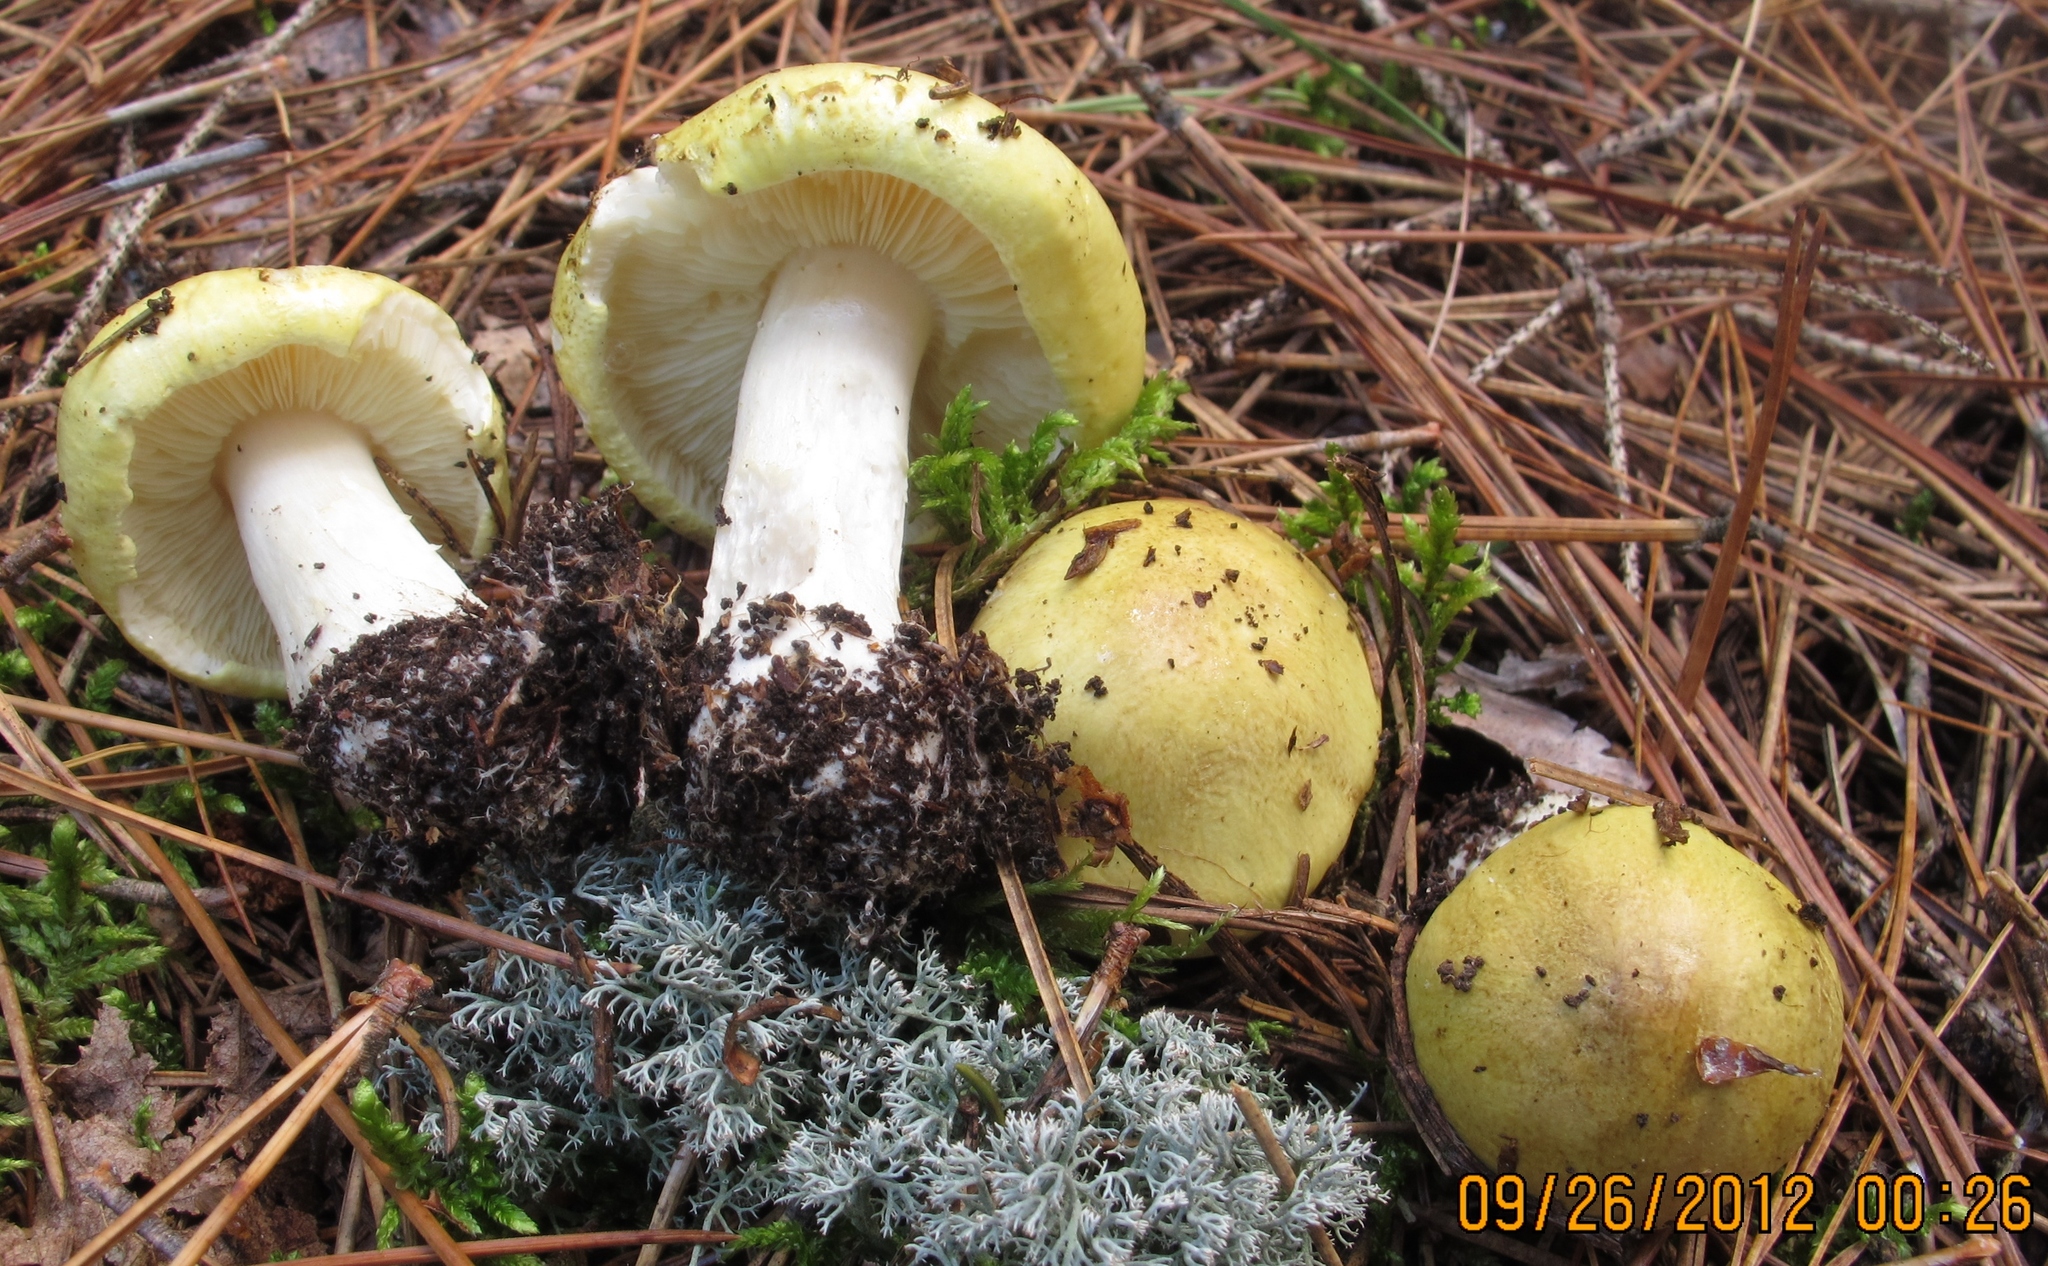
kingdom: Fungi
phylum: Basidiomycota
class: Agaricomycetes
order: Agaricales
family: Tricholomataceae
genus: Tricholoma
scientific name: Tricholoma intermedium
